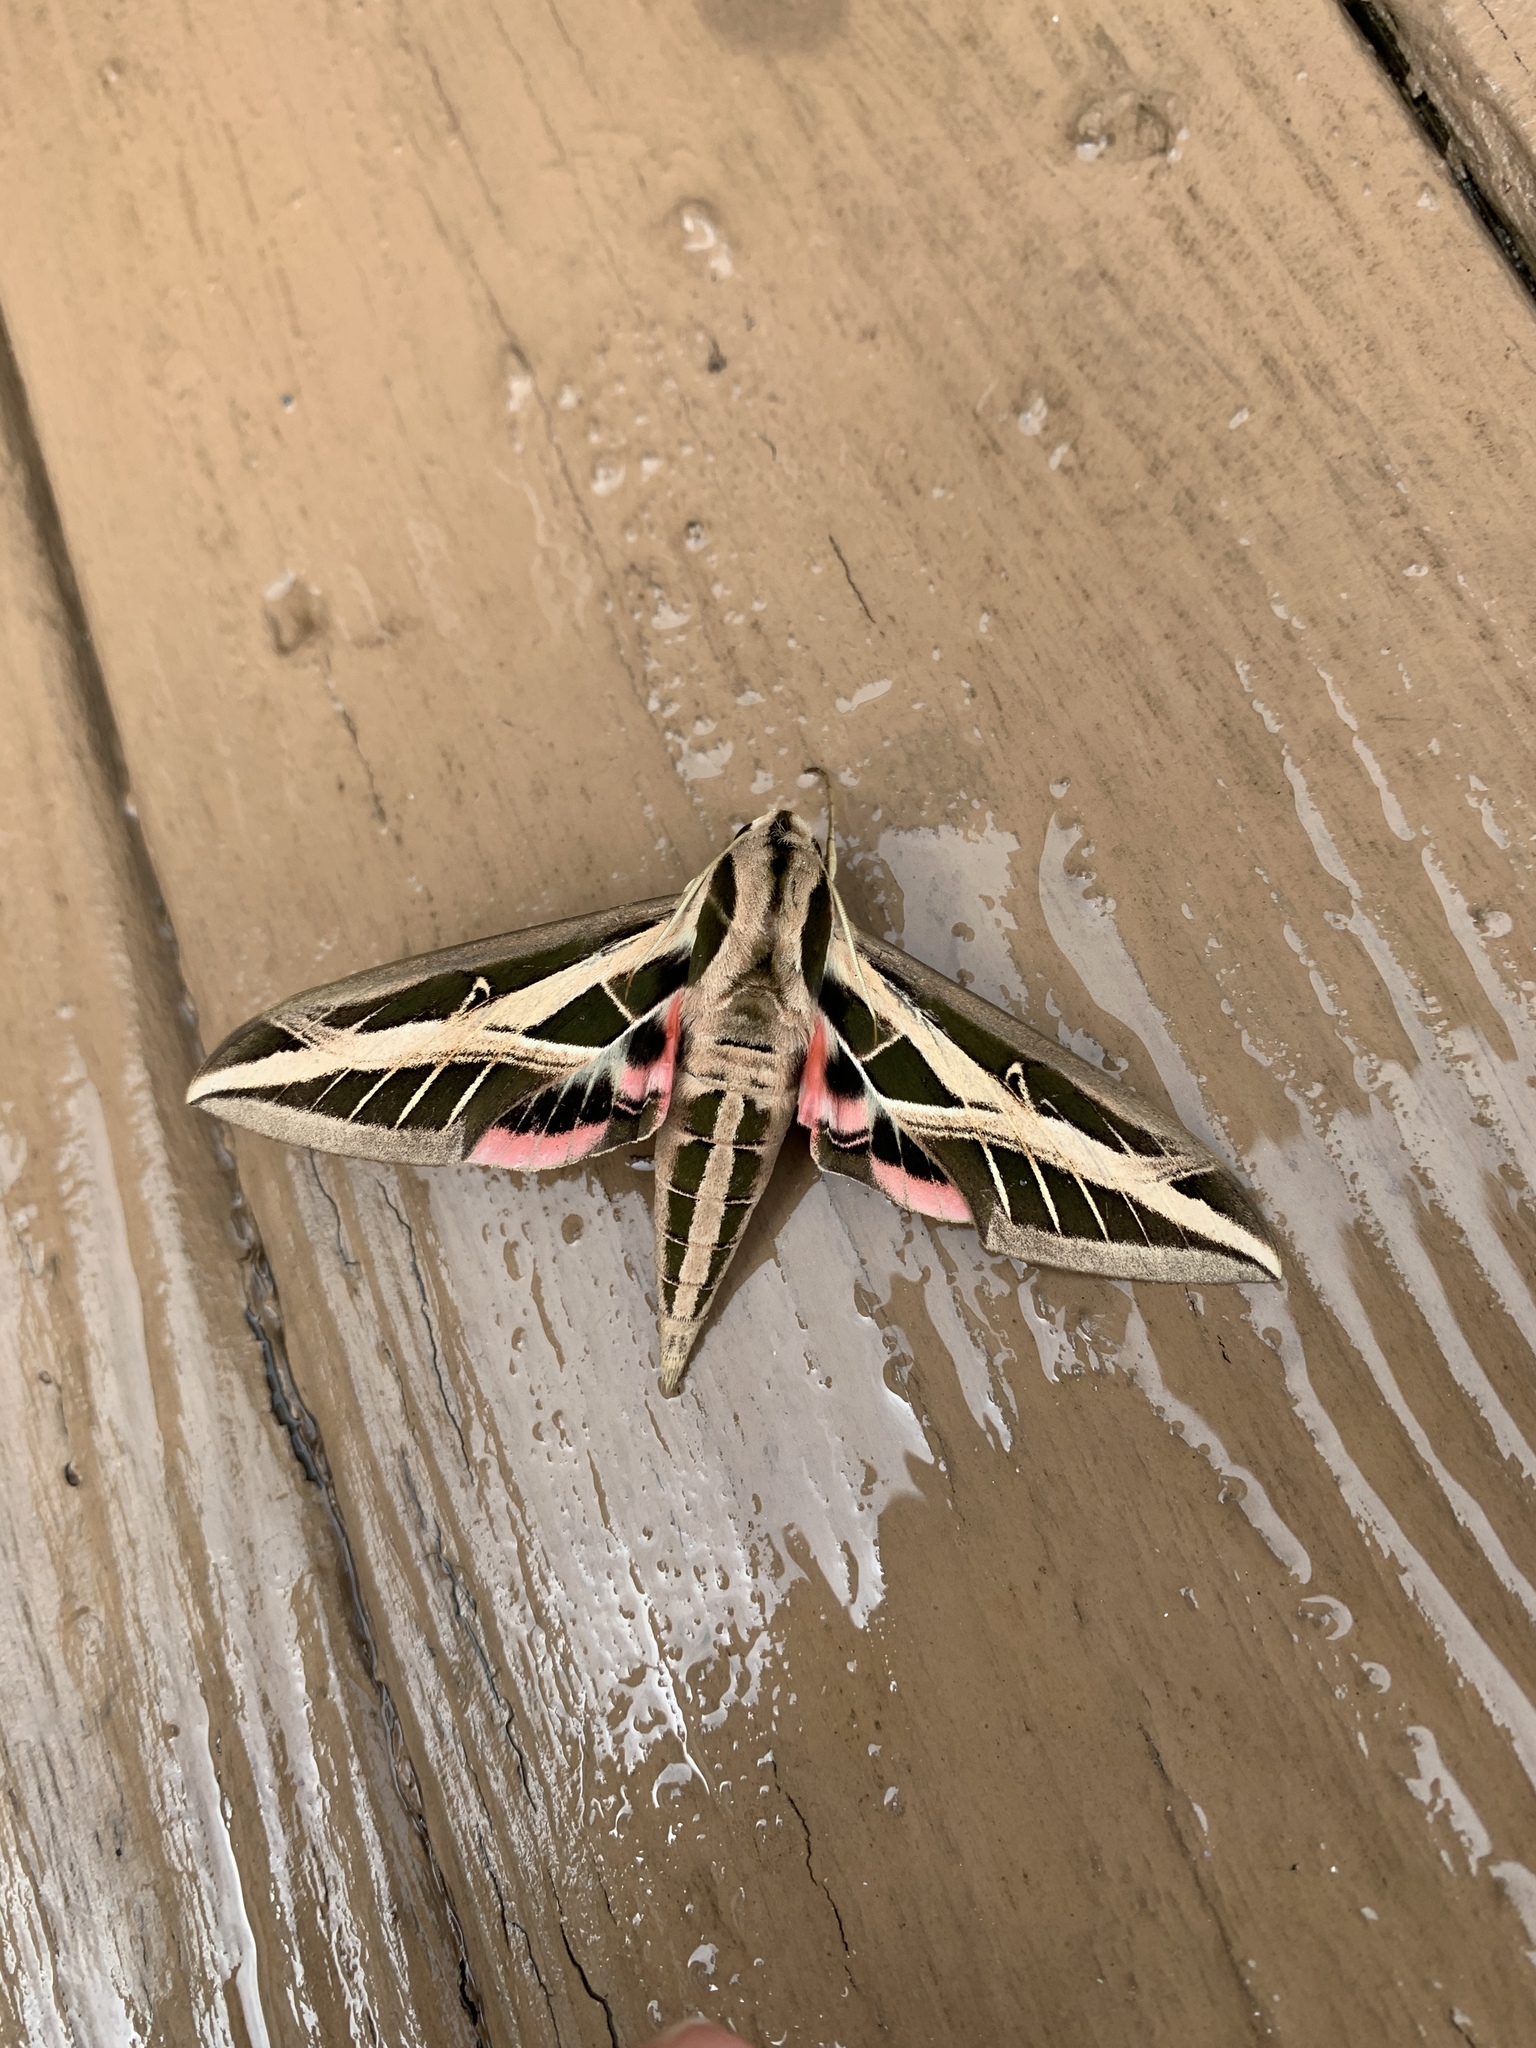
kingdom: Animalia
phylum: Arthropoda
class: Insecta
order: Lepidoptera
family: Sphingidae
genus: Eumorpha
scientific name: Eumorpha fasciatus
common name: Banded sphinx
